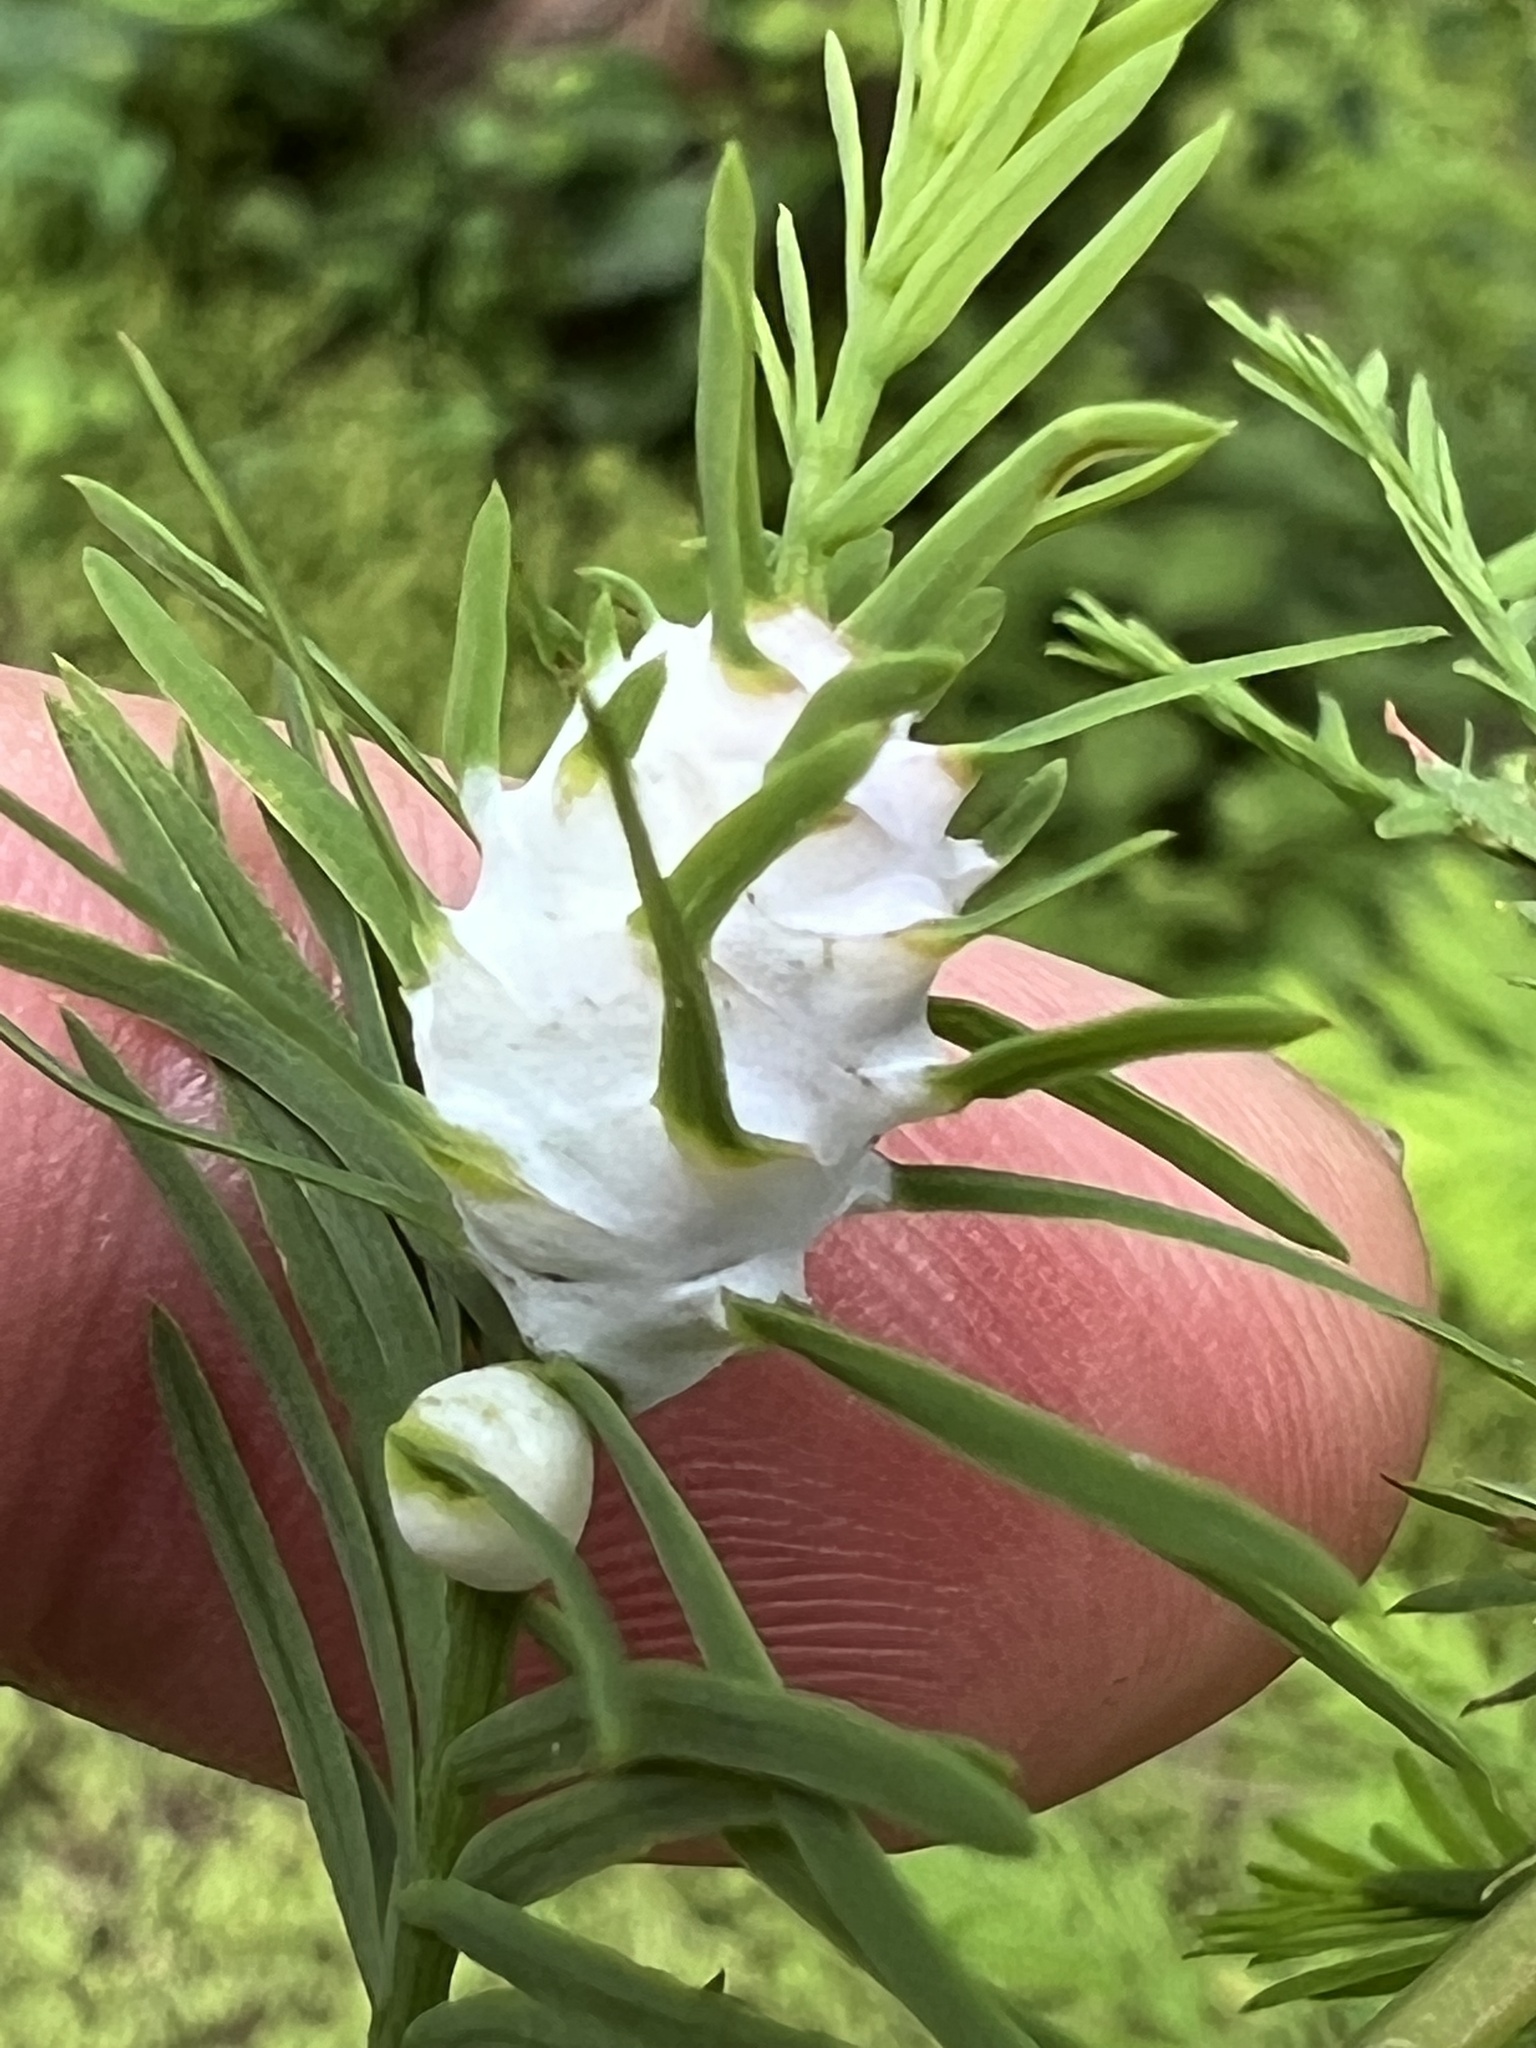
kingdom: Animalia
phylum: Arthropoda
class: Insecta
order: Diptera
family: Cecidomyiidae
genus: Taxodiomyia
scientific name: Taxodiomyia cupressiananassa
